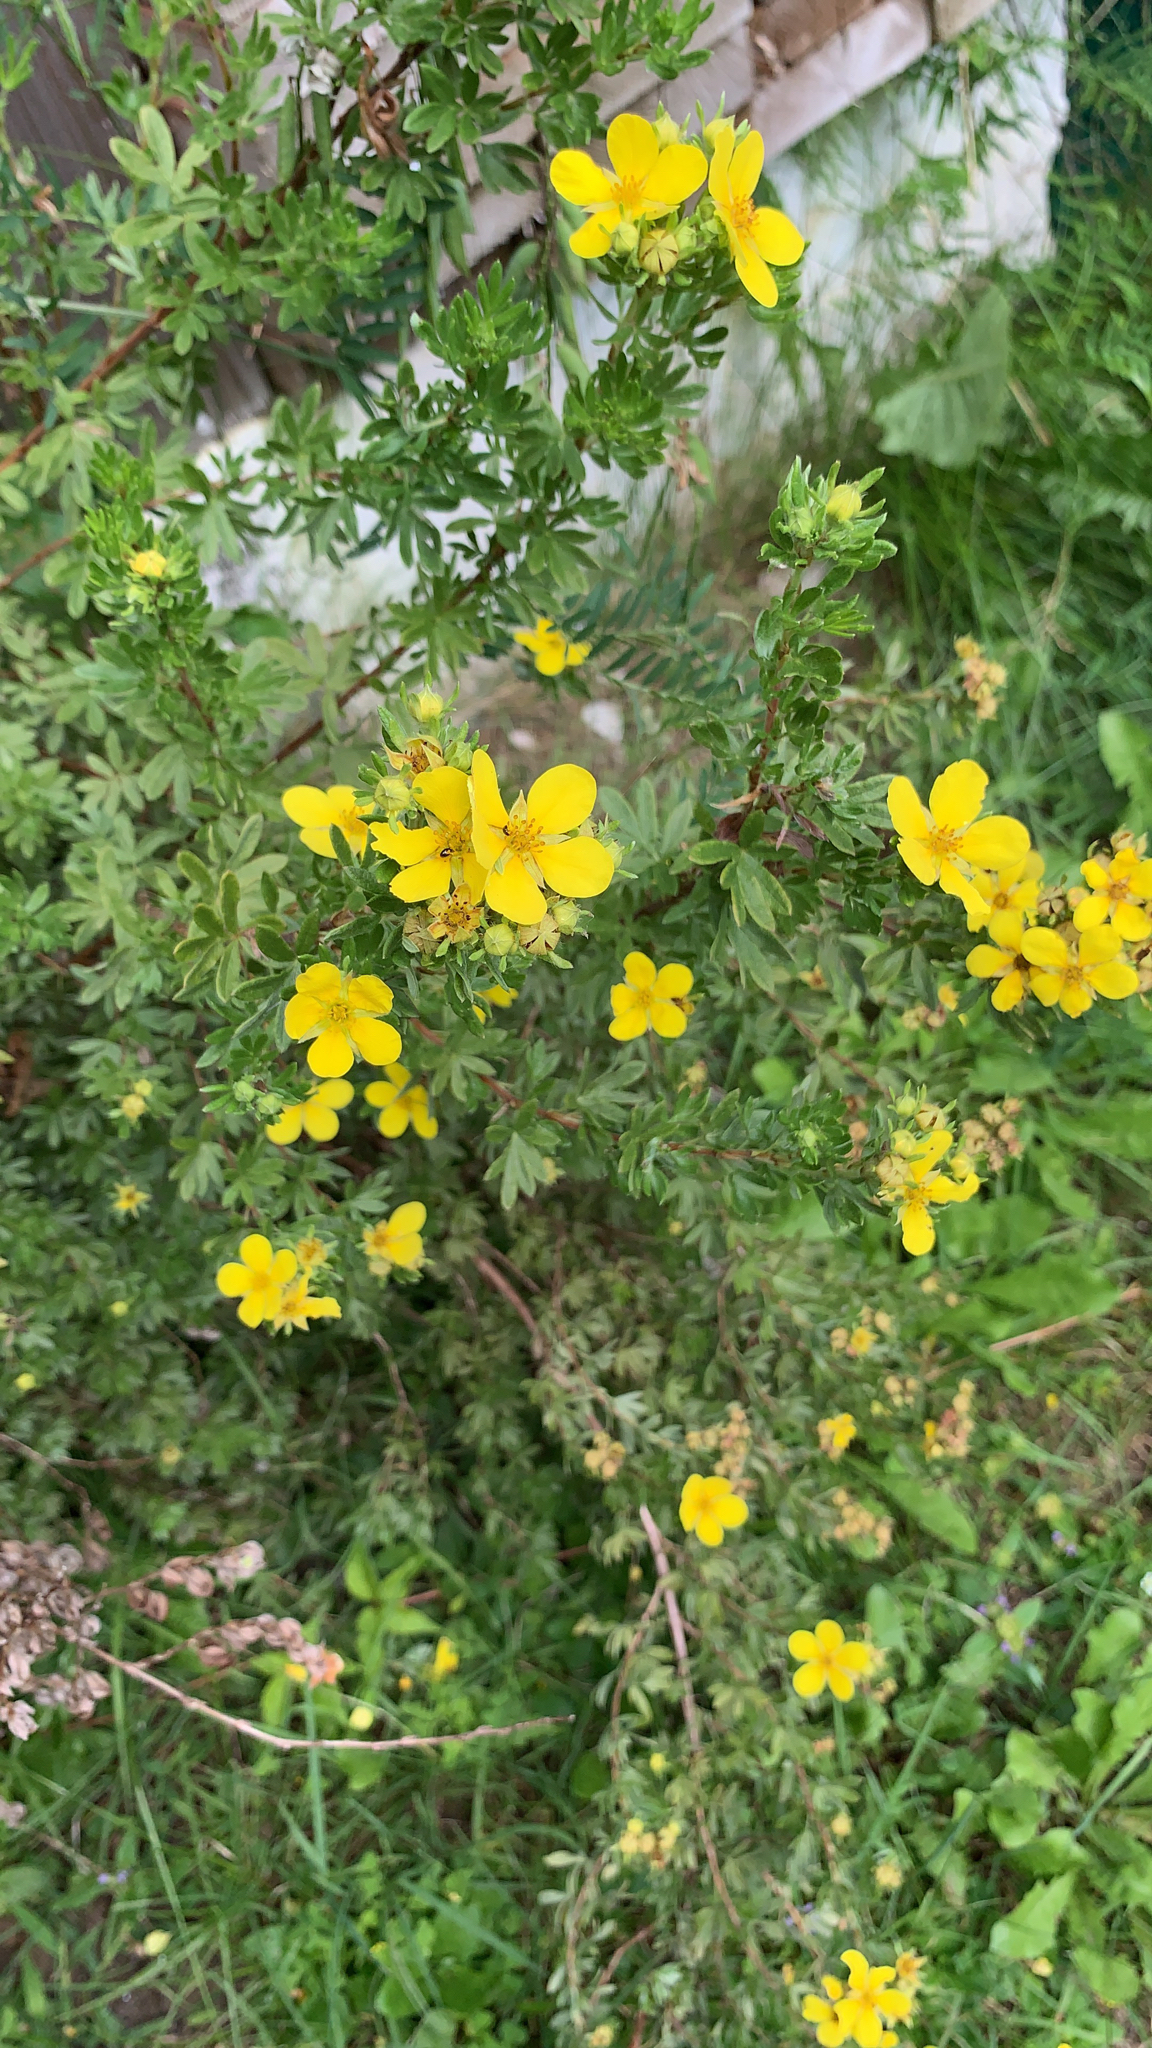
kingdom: Plantae
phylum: Tracheophyta
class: Magnoliopsida
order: Rosales
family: Rosaceae
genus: Dasiphora
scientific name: Dasiphora fruticosa
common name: Shrubby cinquefoil
